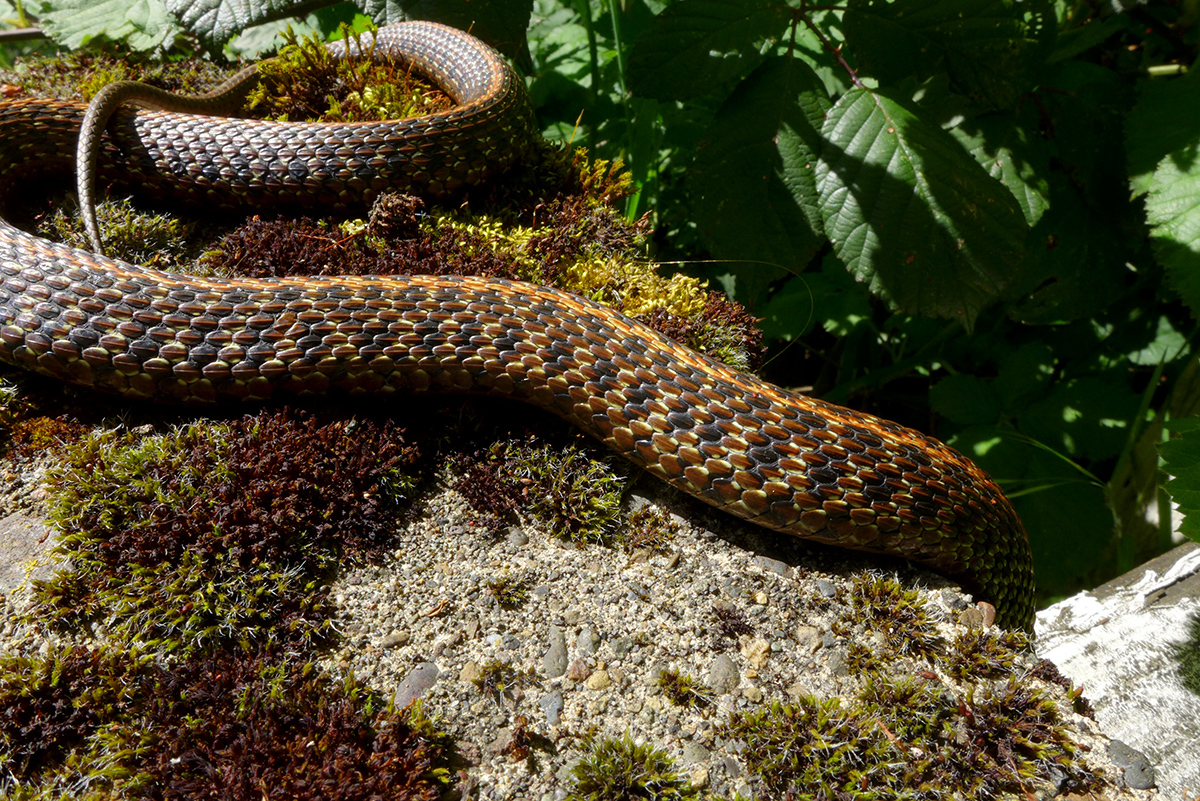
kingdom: Animalia
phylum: Chordata
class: Squamata
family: Colubridae
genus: Thamnophis
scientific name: Thamnophis ordinoides
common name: Northwestern garter snake
